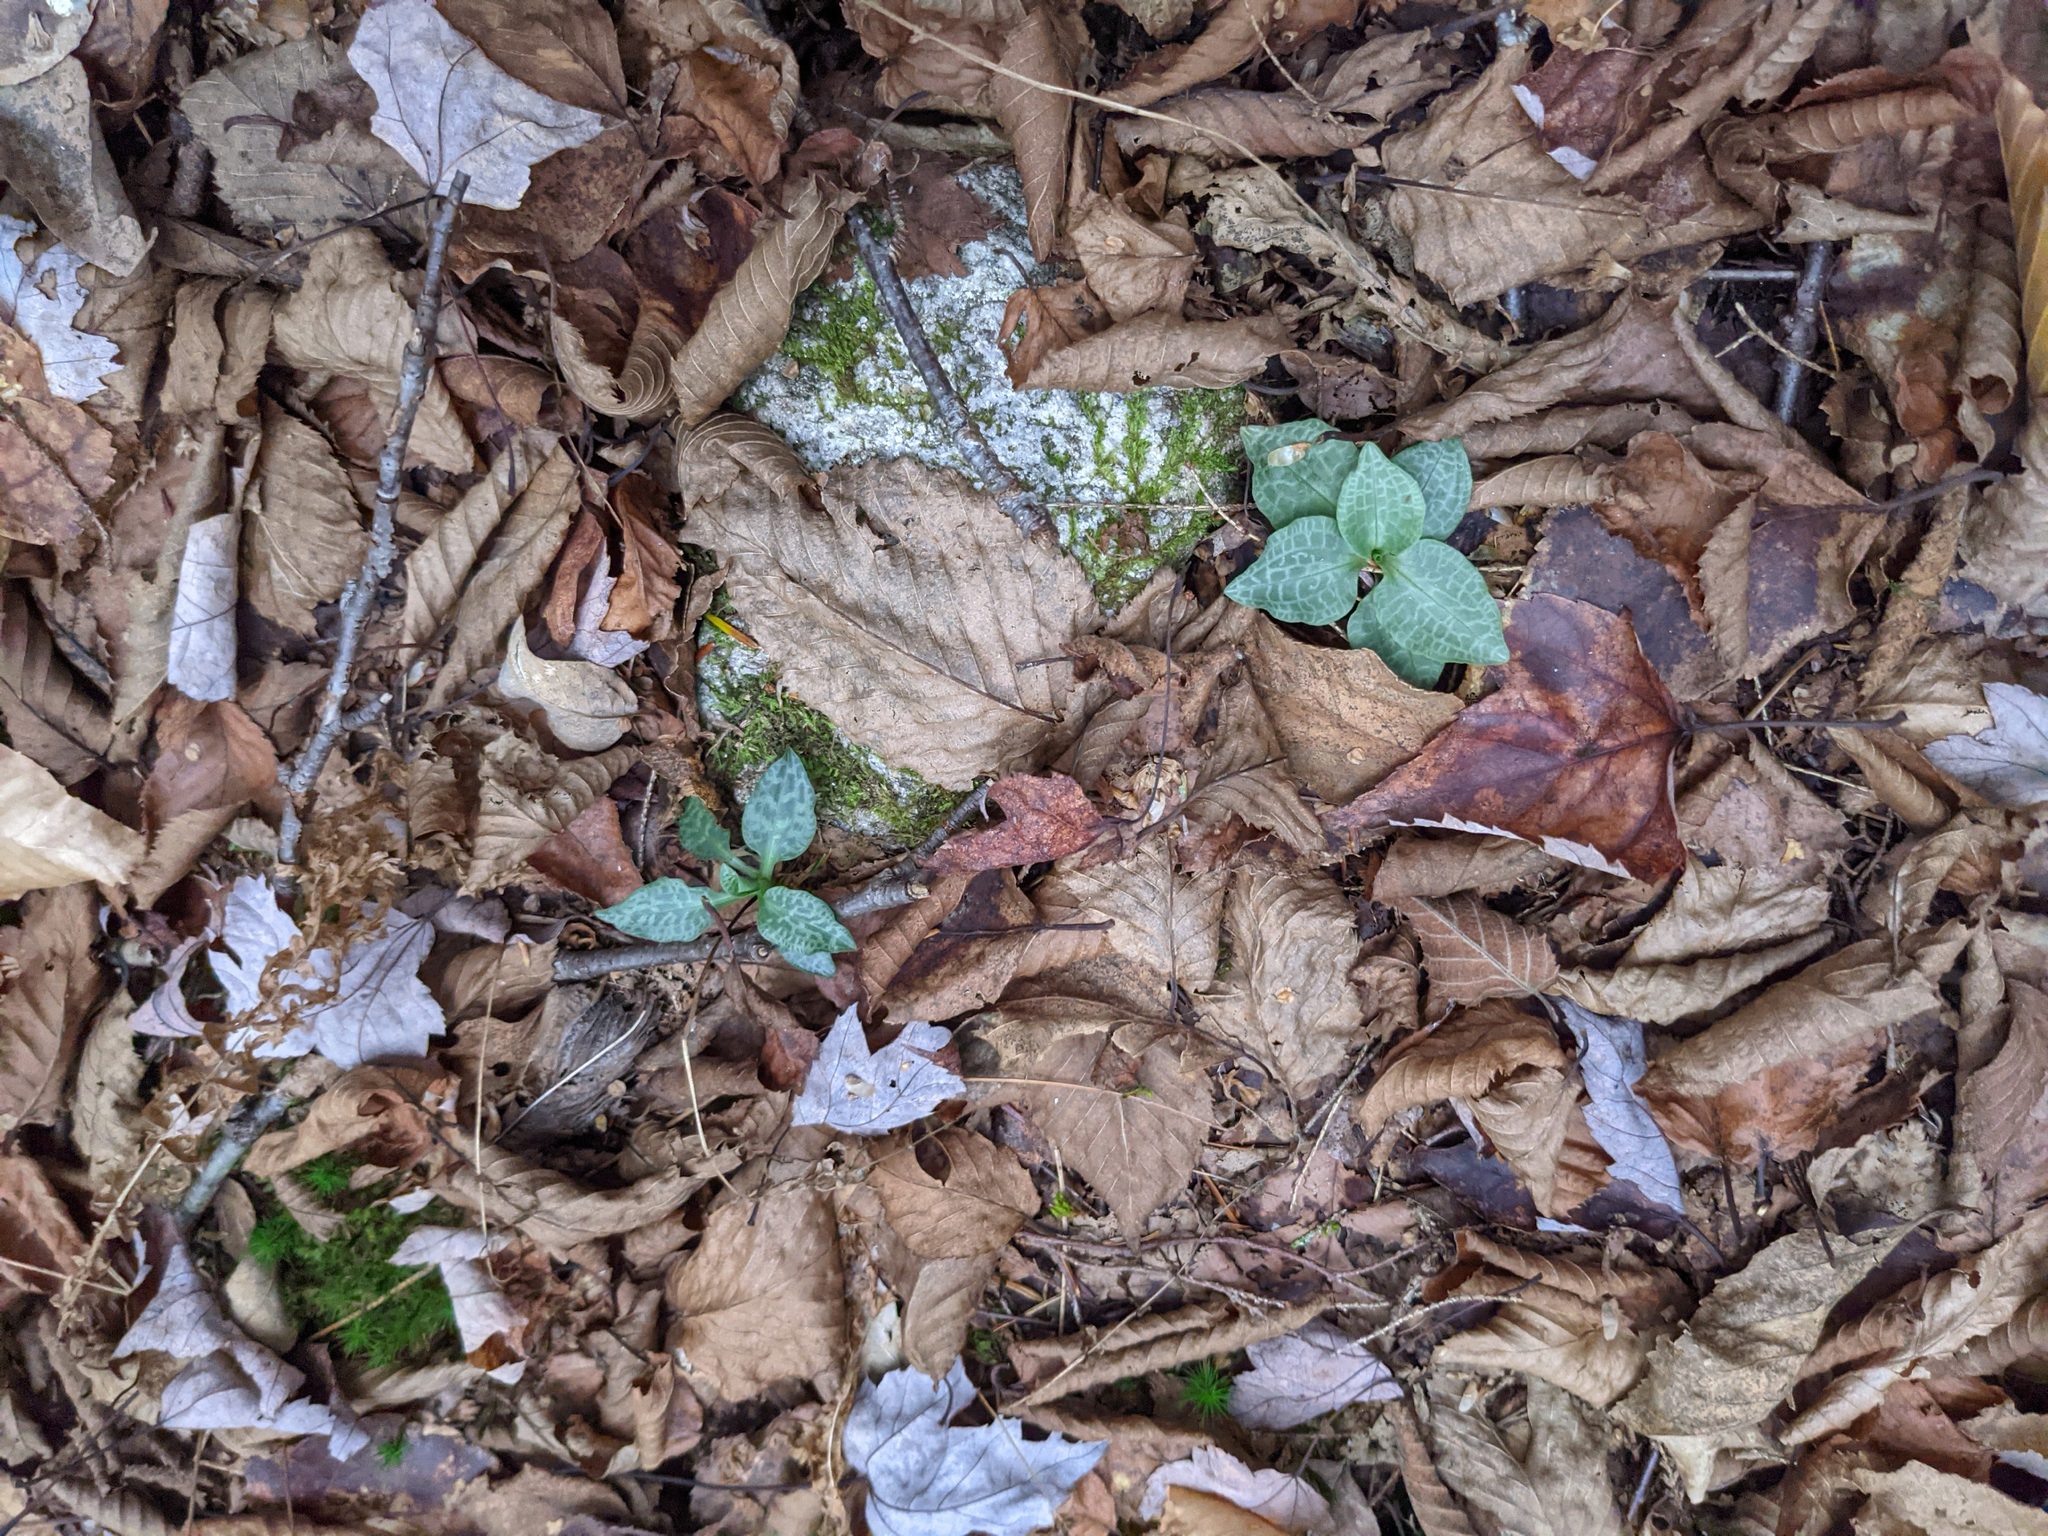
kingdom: Plantae
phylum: Tracheophyta
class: Liliopsida
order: Asparagales
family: Orchidaceae
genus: Goodyera
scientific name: Goodyera tesselata
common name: Checkered rattlesnake-plantain
